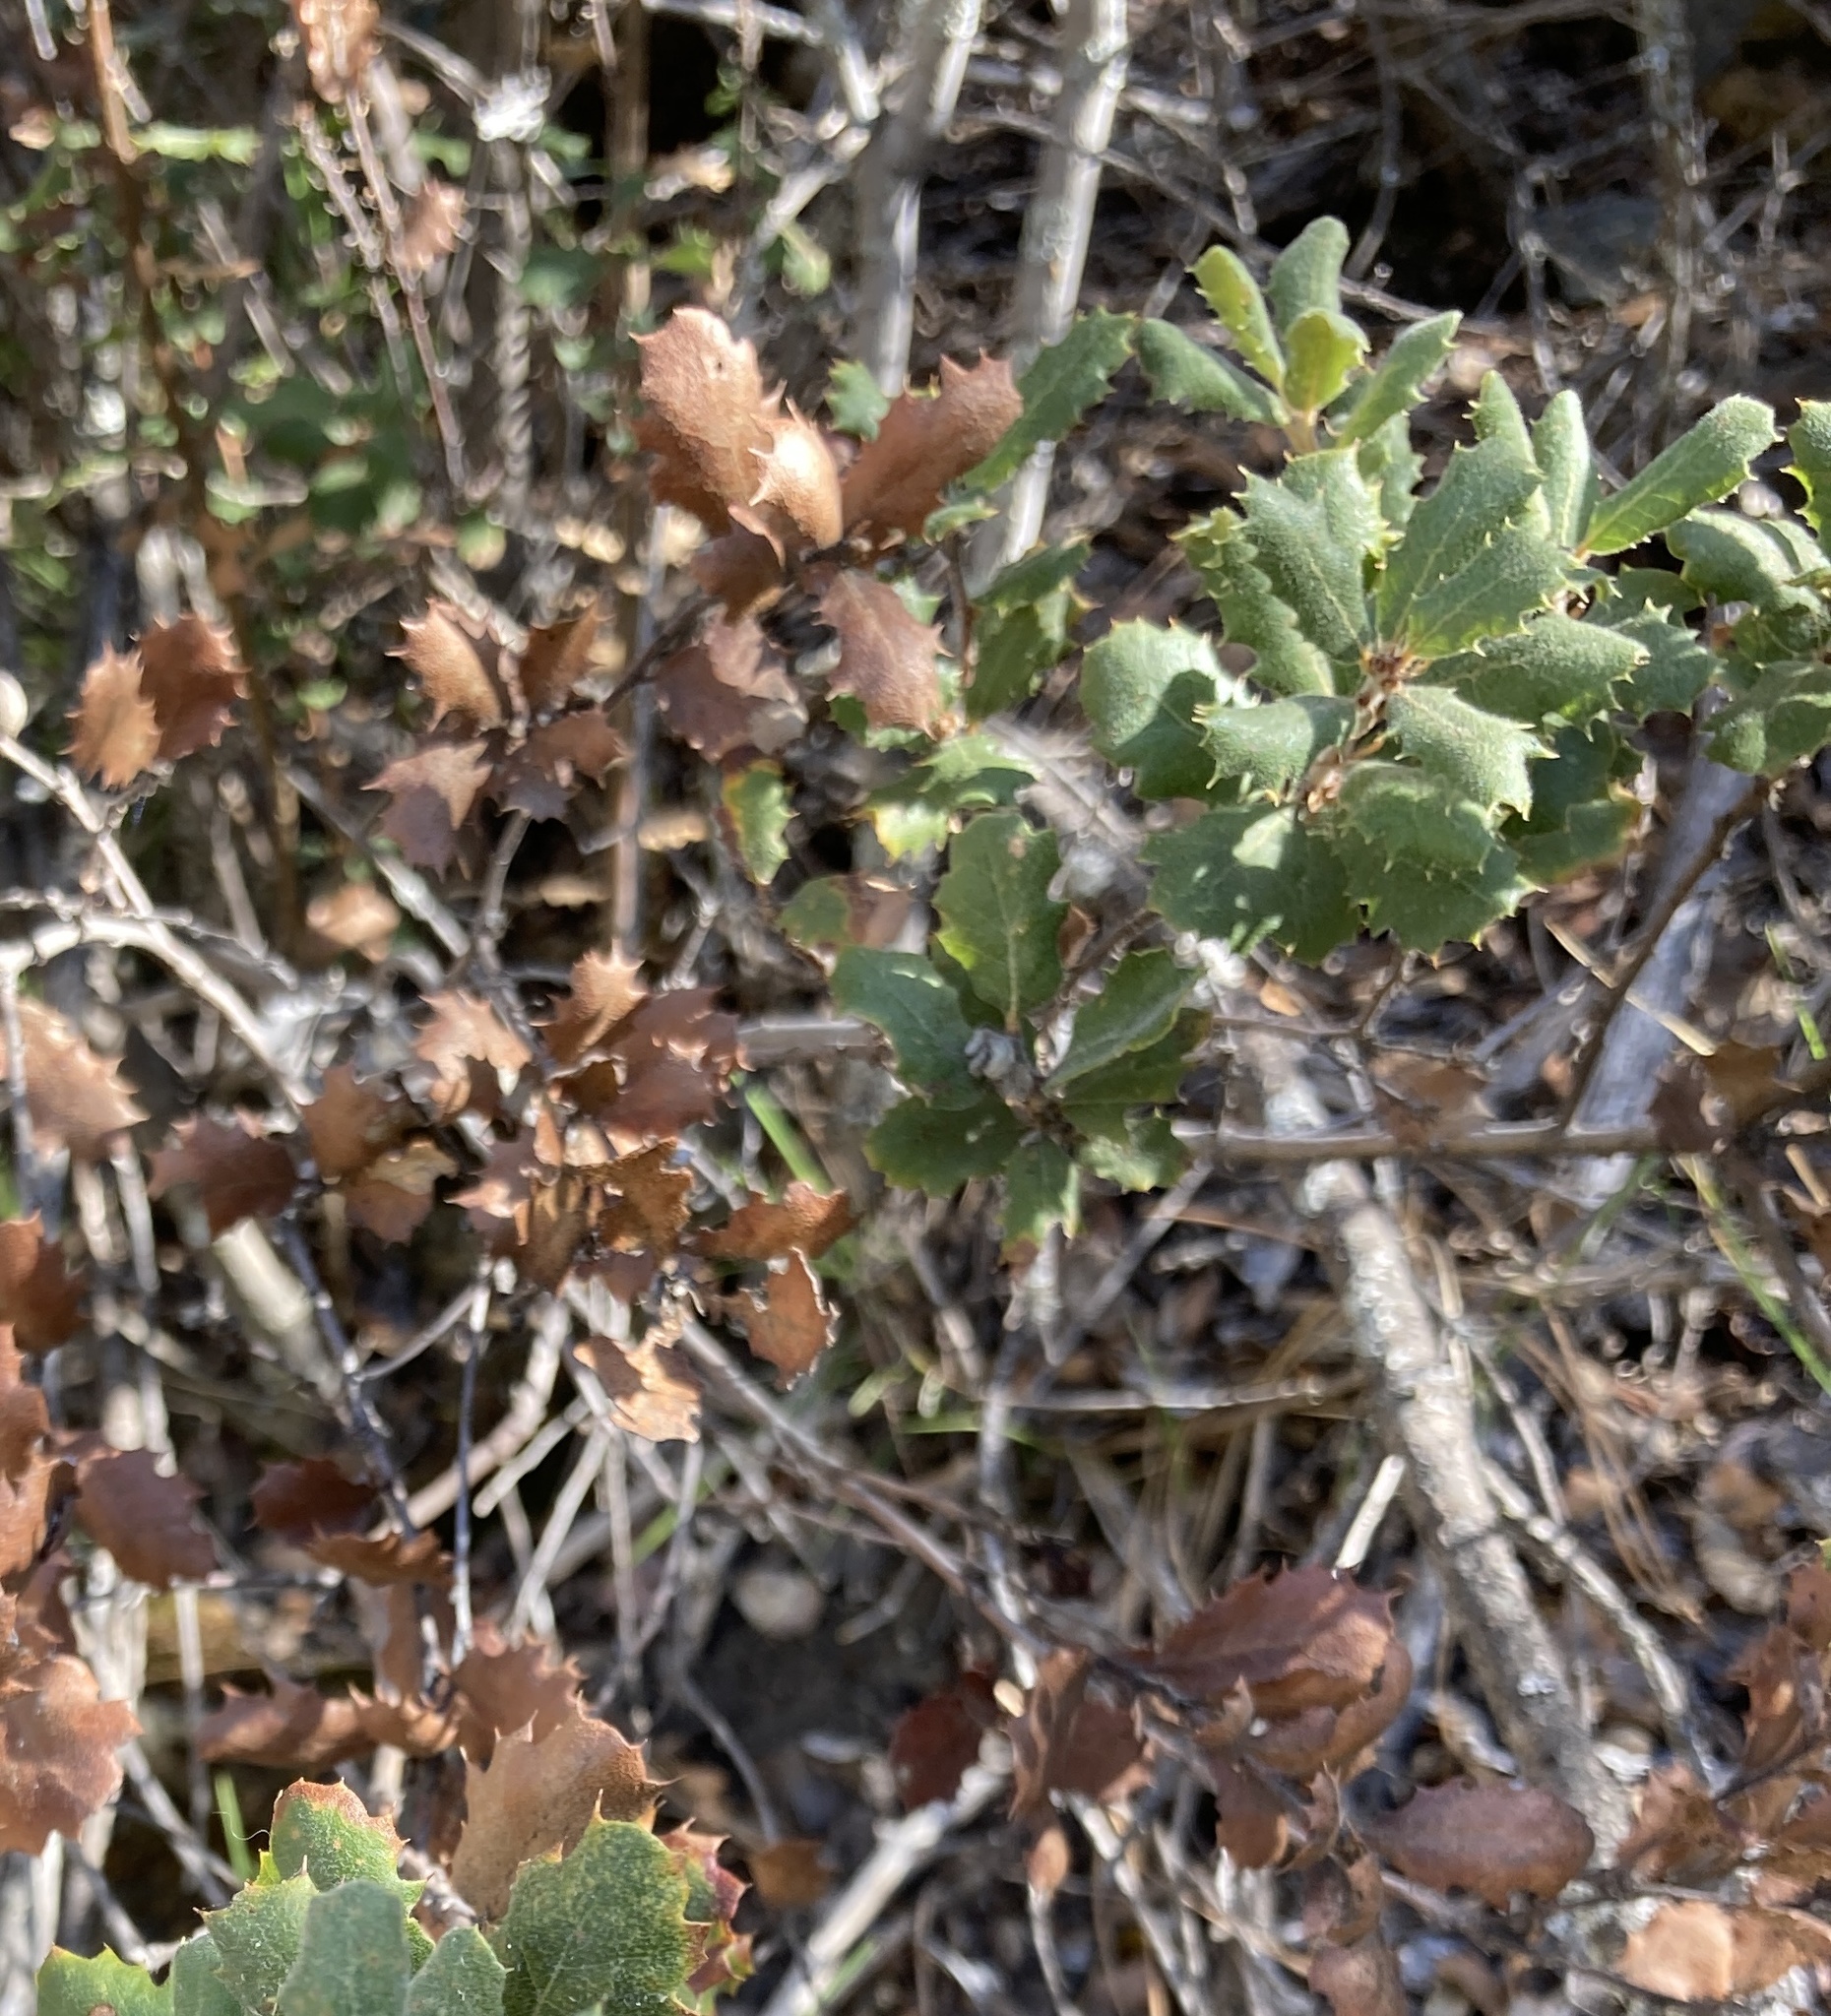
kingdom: Plantae
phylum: Tracheophyta
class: Magnoliopsida
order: Fagales
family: Fagaceae
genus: Quercus
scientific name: Quercus durata
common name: Leather oak
